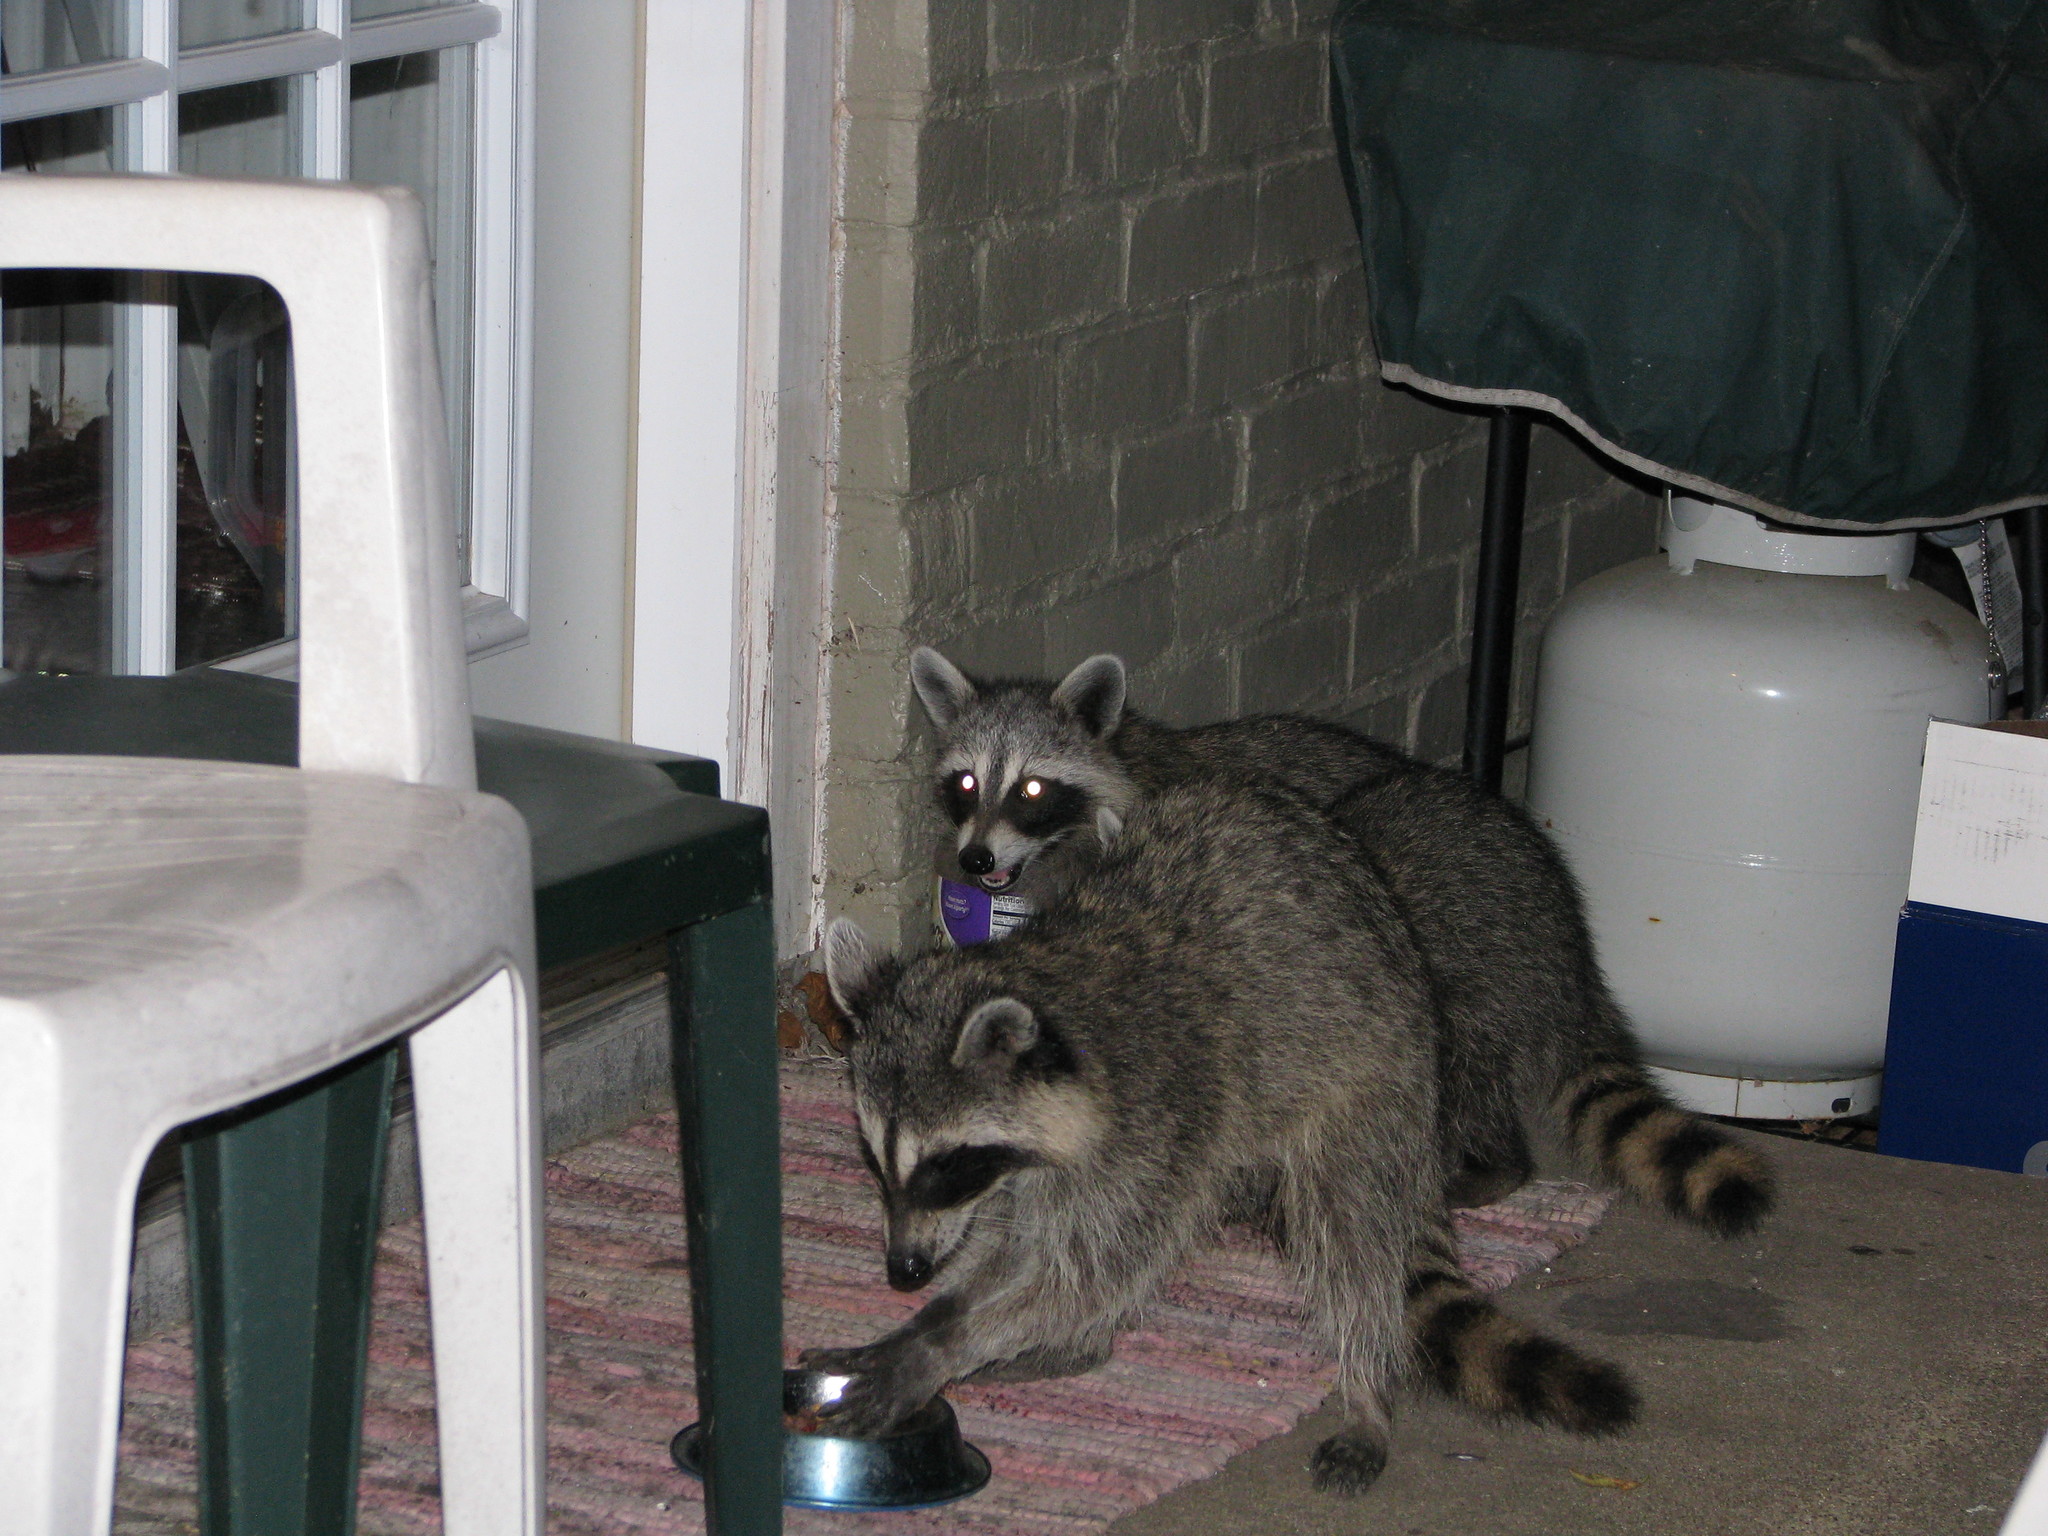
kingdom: Animalia
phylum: Chordata
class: Mammalia
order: Carnivora
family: Procyonidae
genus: Procyon
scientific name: Procyon lotor
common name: Raccoon
